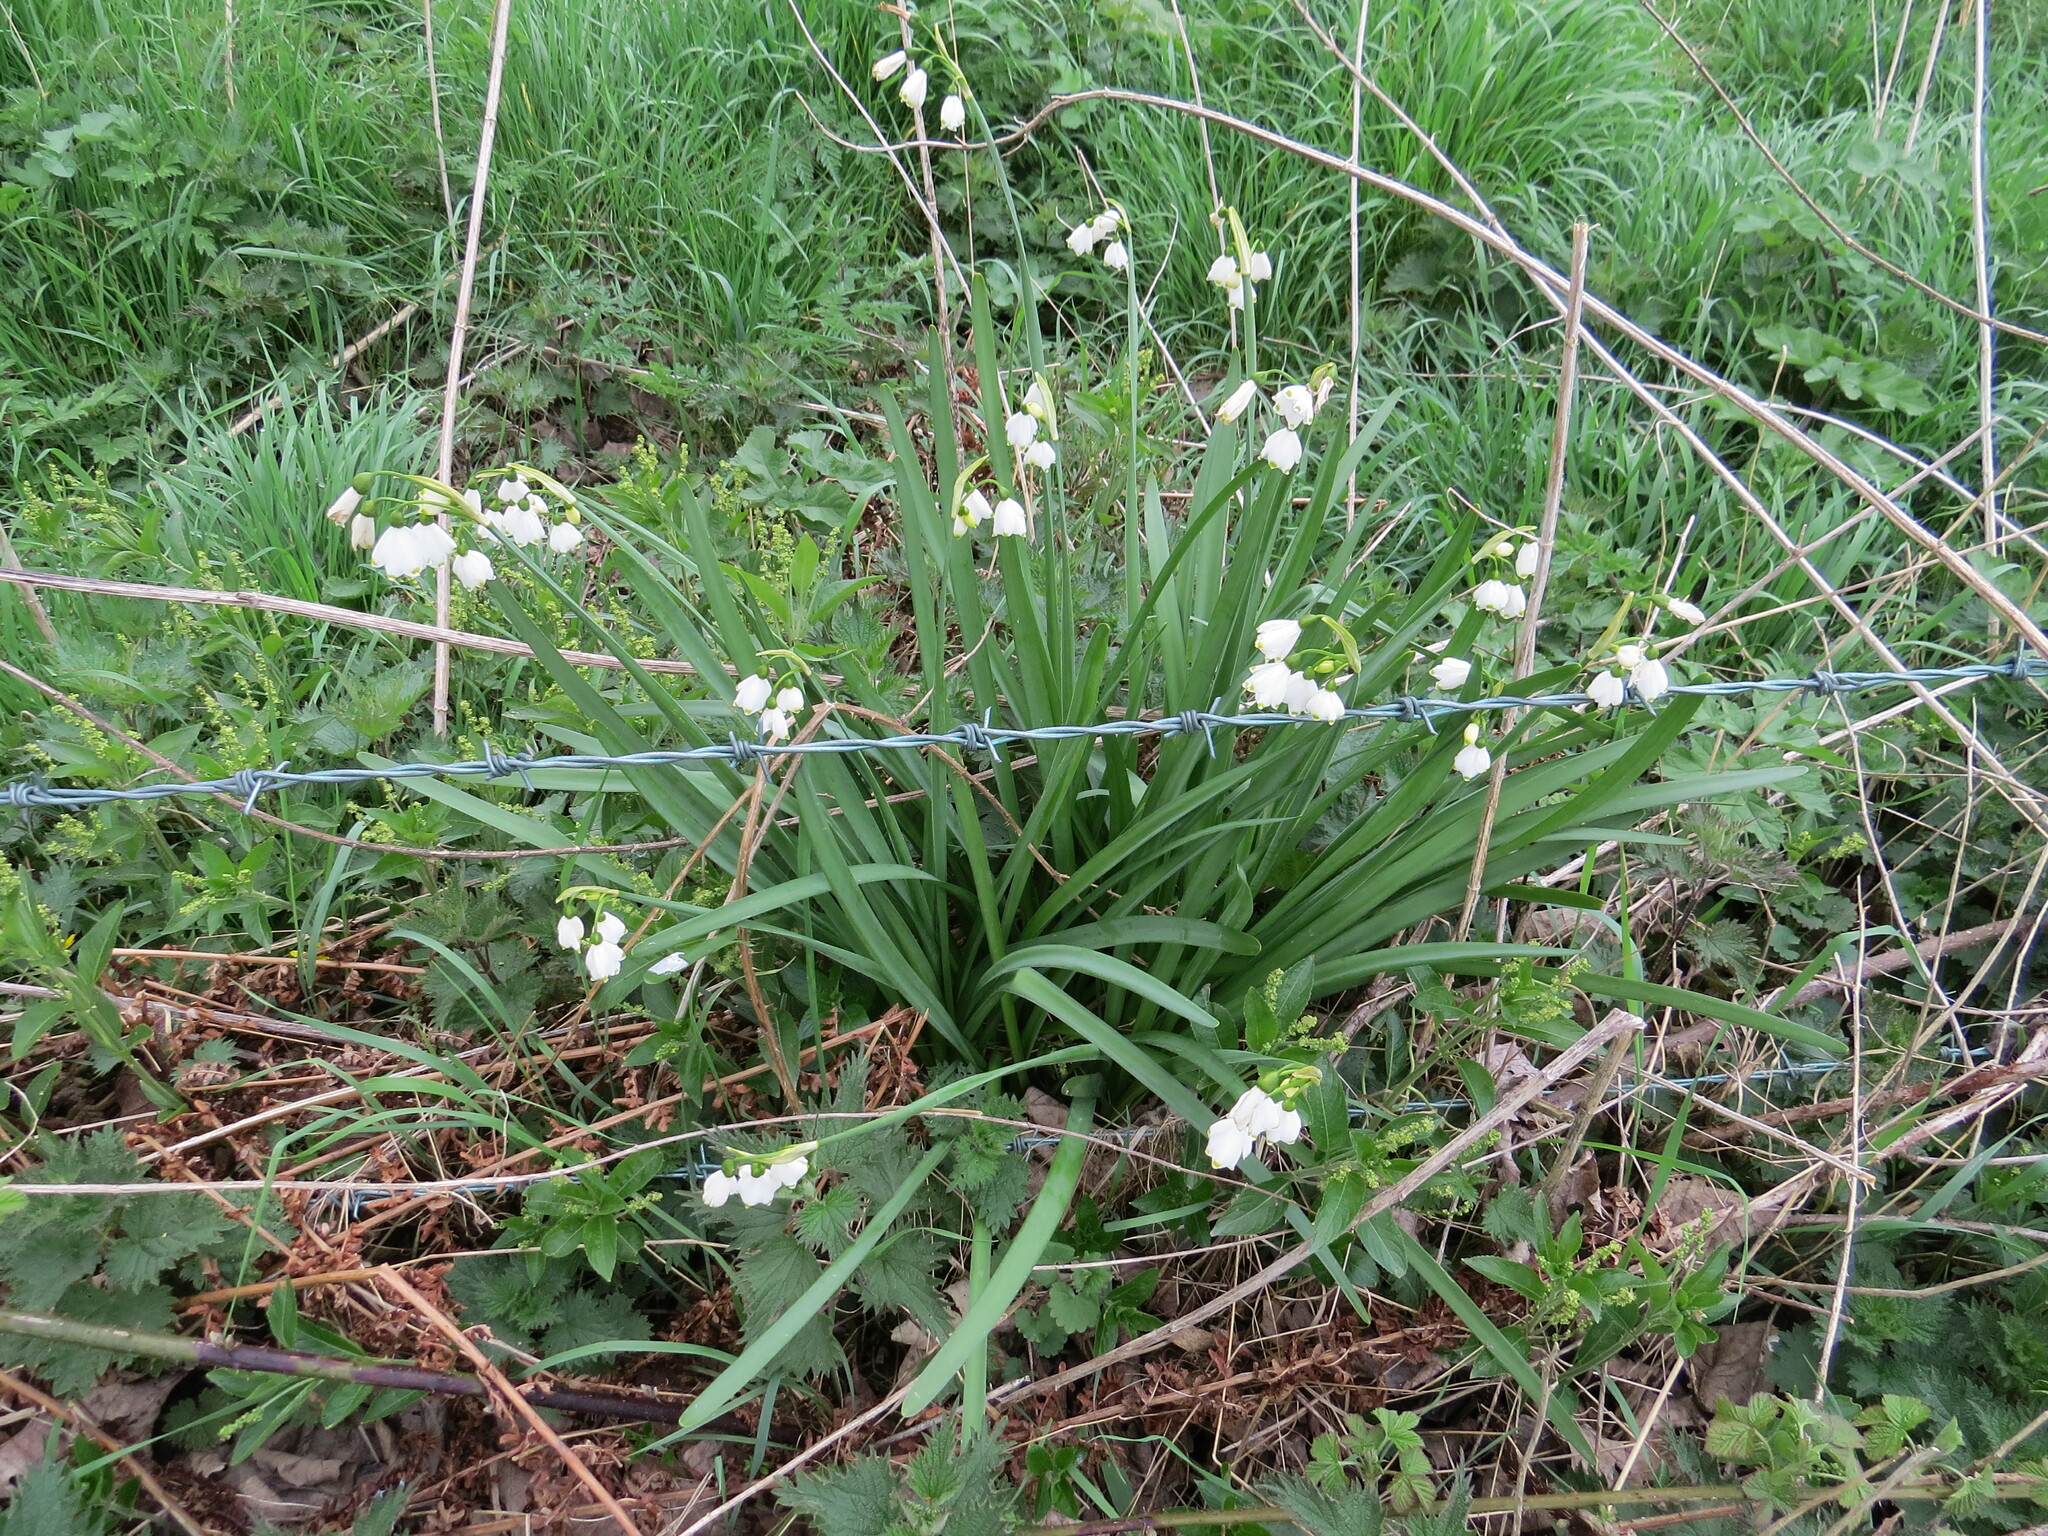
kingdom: Plantae
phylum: Tracheophyta
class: Liliopsida
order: Asparagales
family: Amaryllidaceae
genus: Leucojum
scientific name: Leucojum aestivum
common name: Summer snowflake
